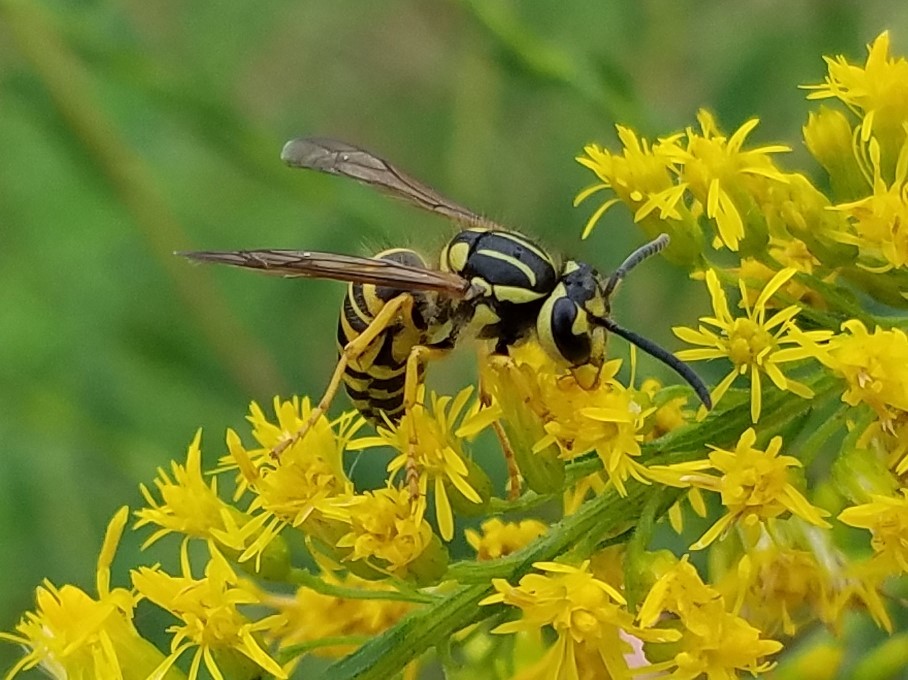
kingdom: Animalia
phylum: Arthropoda
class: Insecta
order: Hymenoptera
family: Vespidae
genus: Vespula
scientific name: Vespula squamosa
